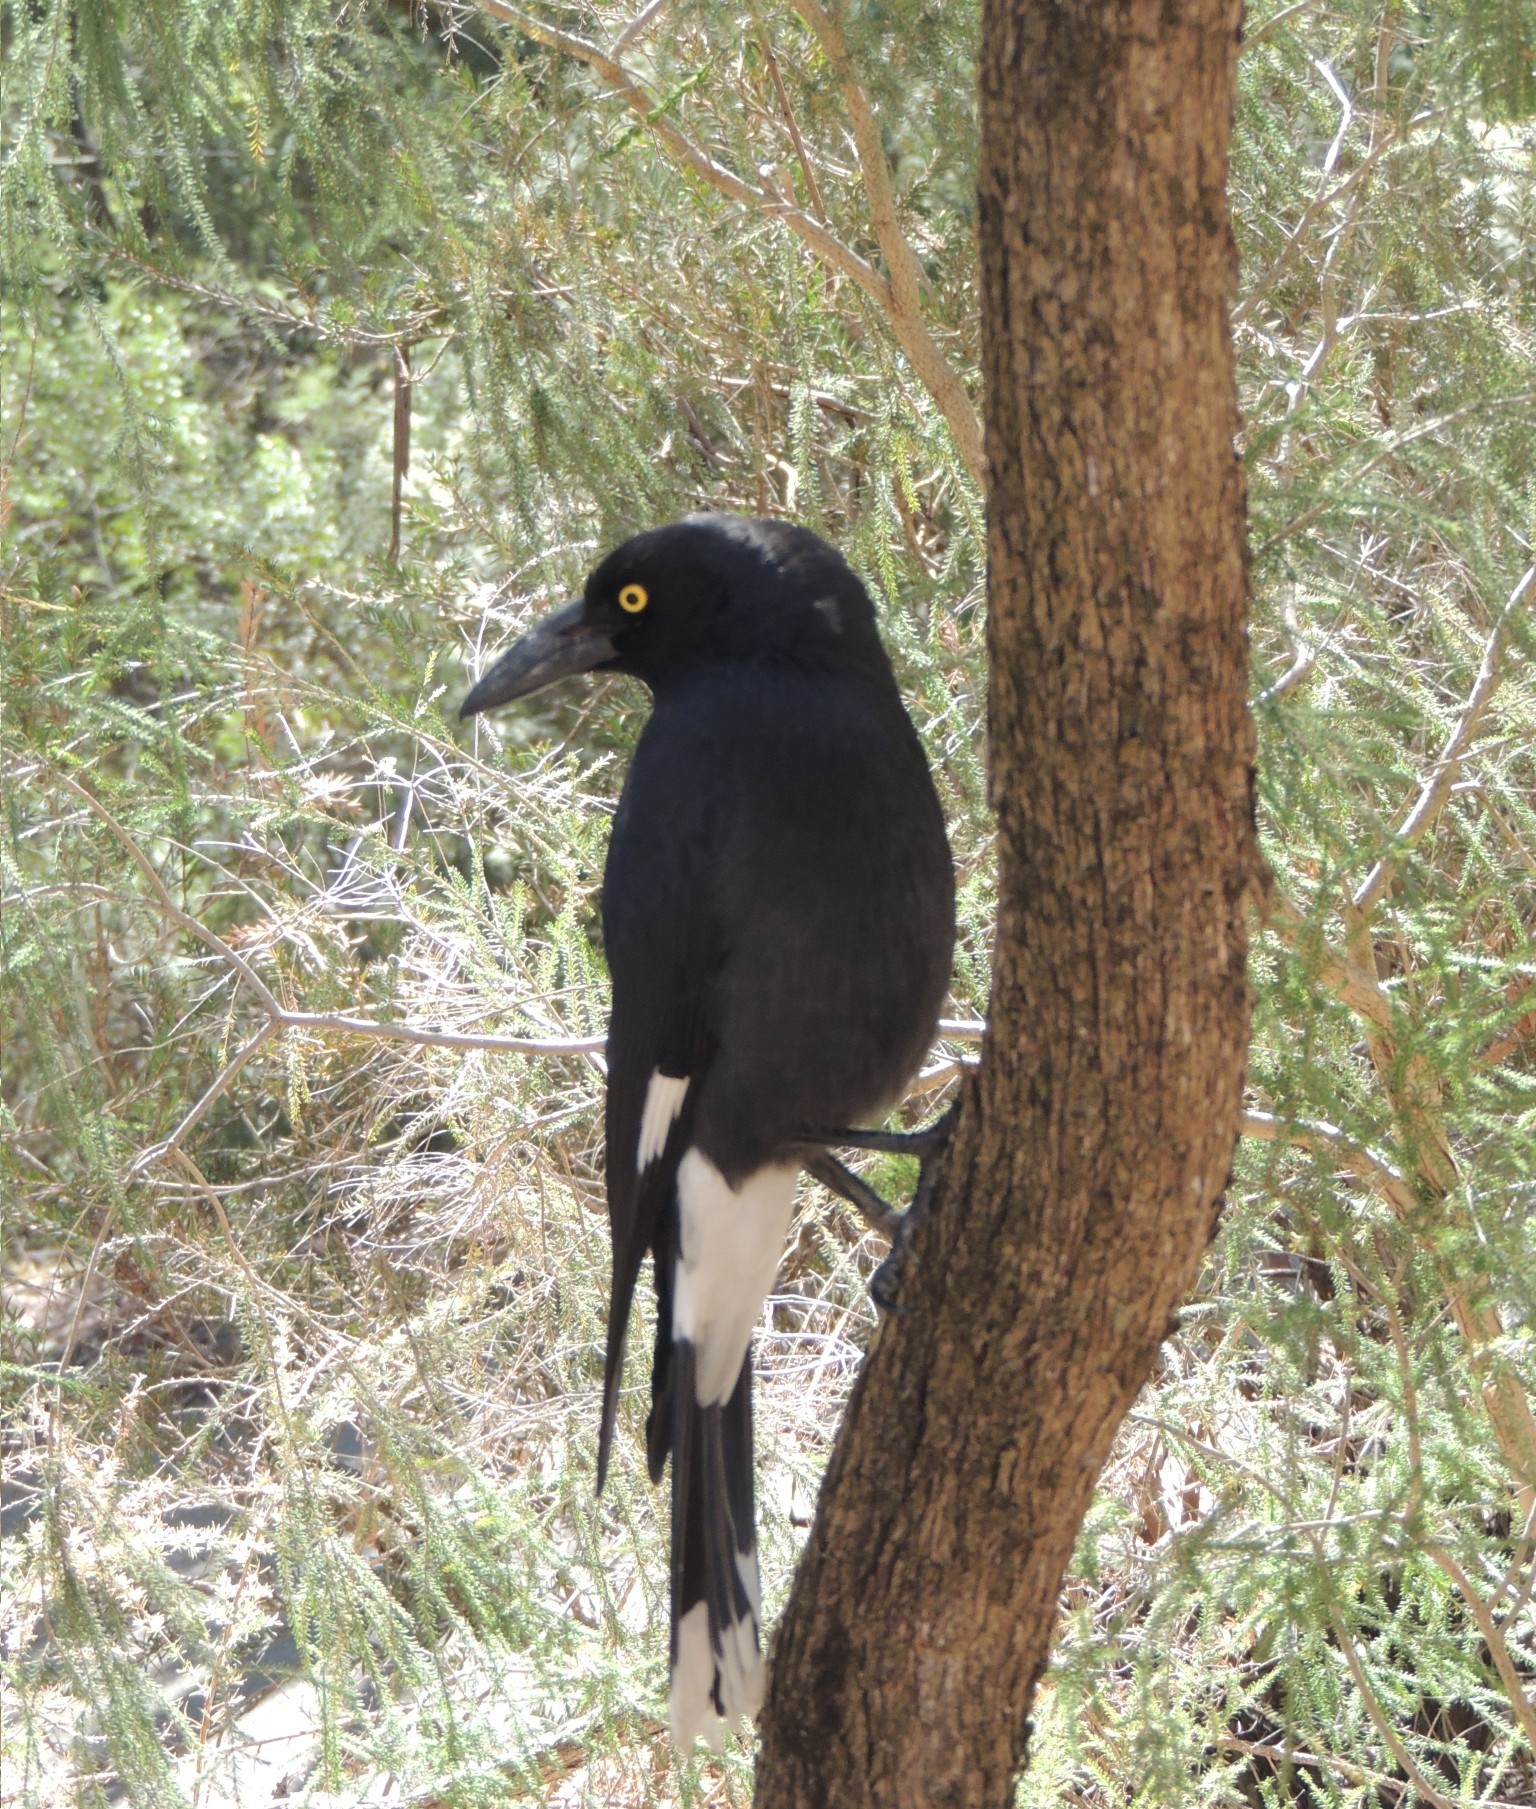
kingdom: Animalia
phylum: Chordata
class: Aves
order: Passeriformes
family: Cracticidae
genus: Strepera
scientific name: Strepera graculina
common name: Pied currawong
